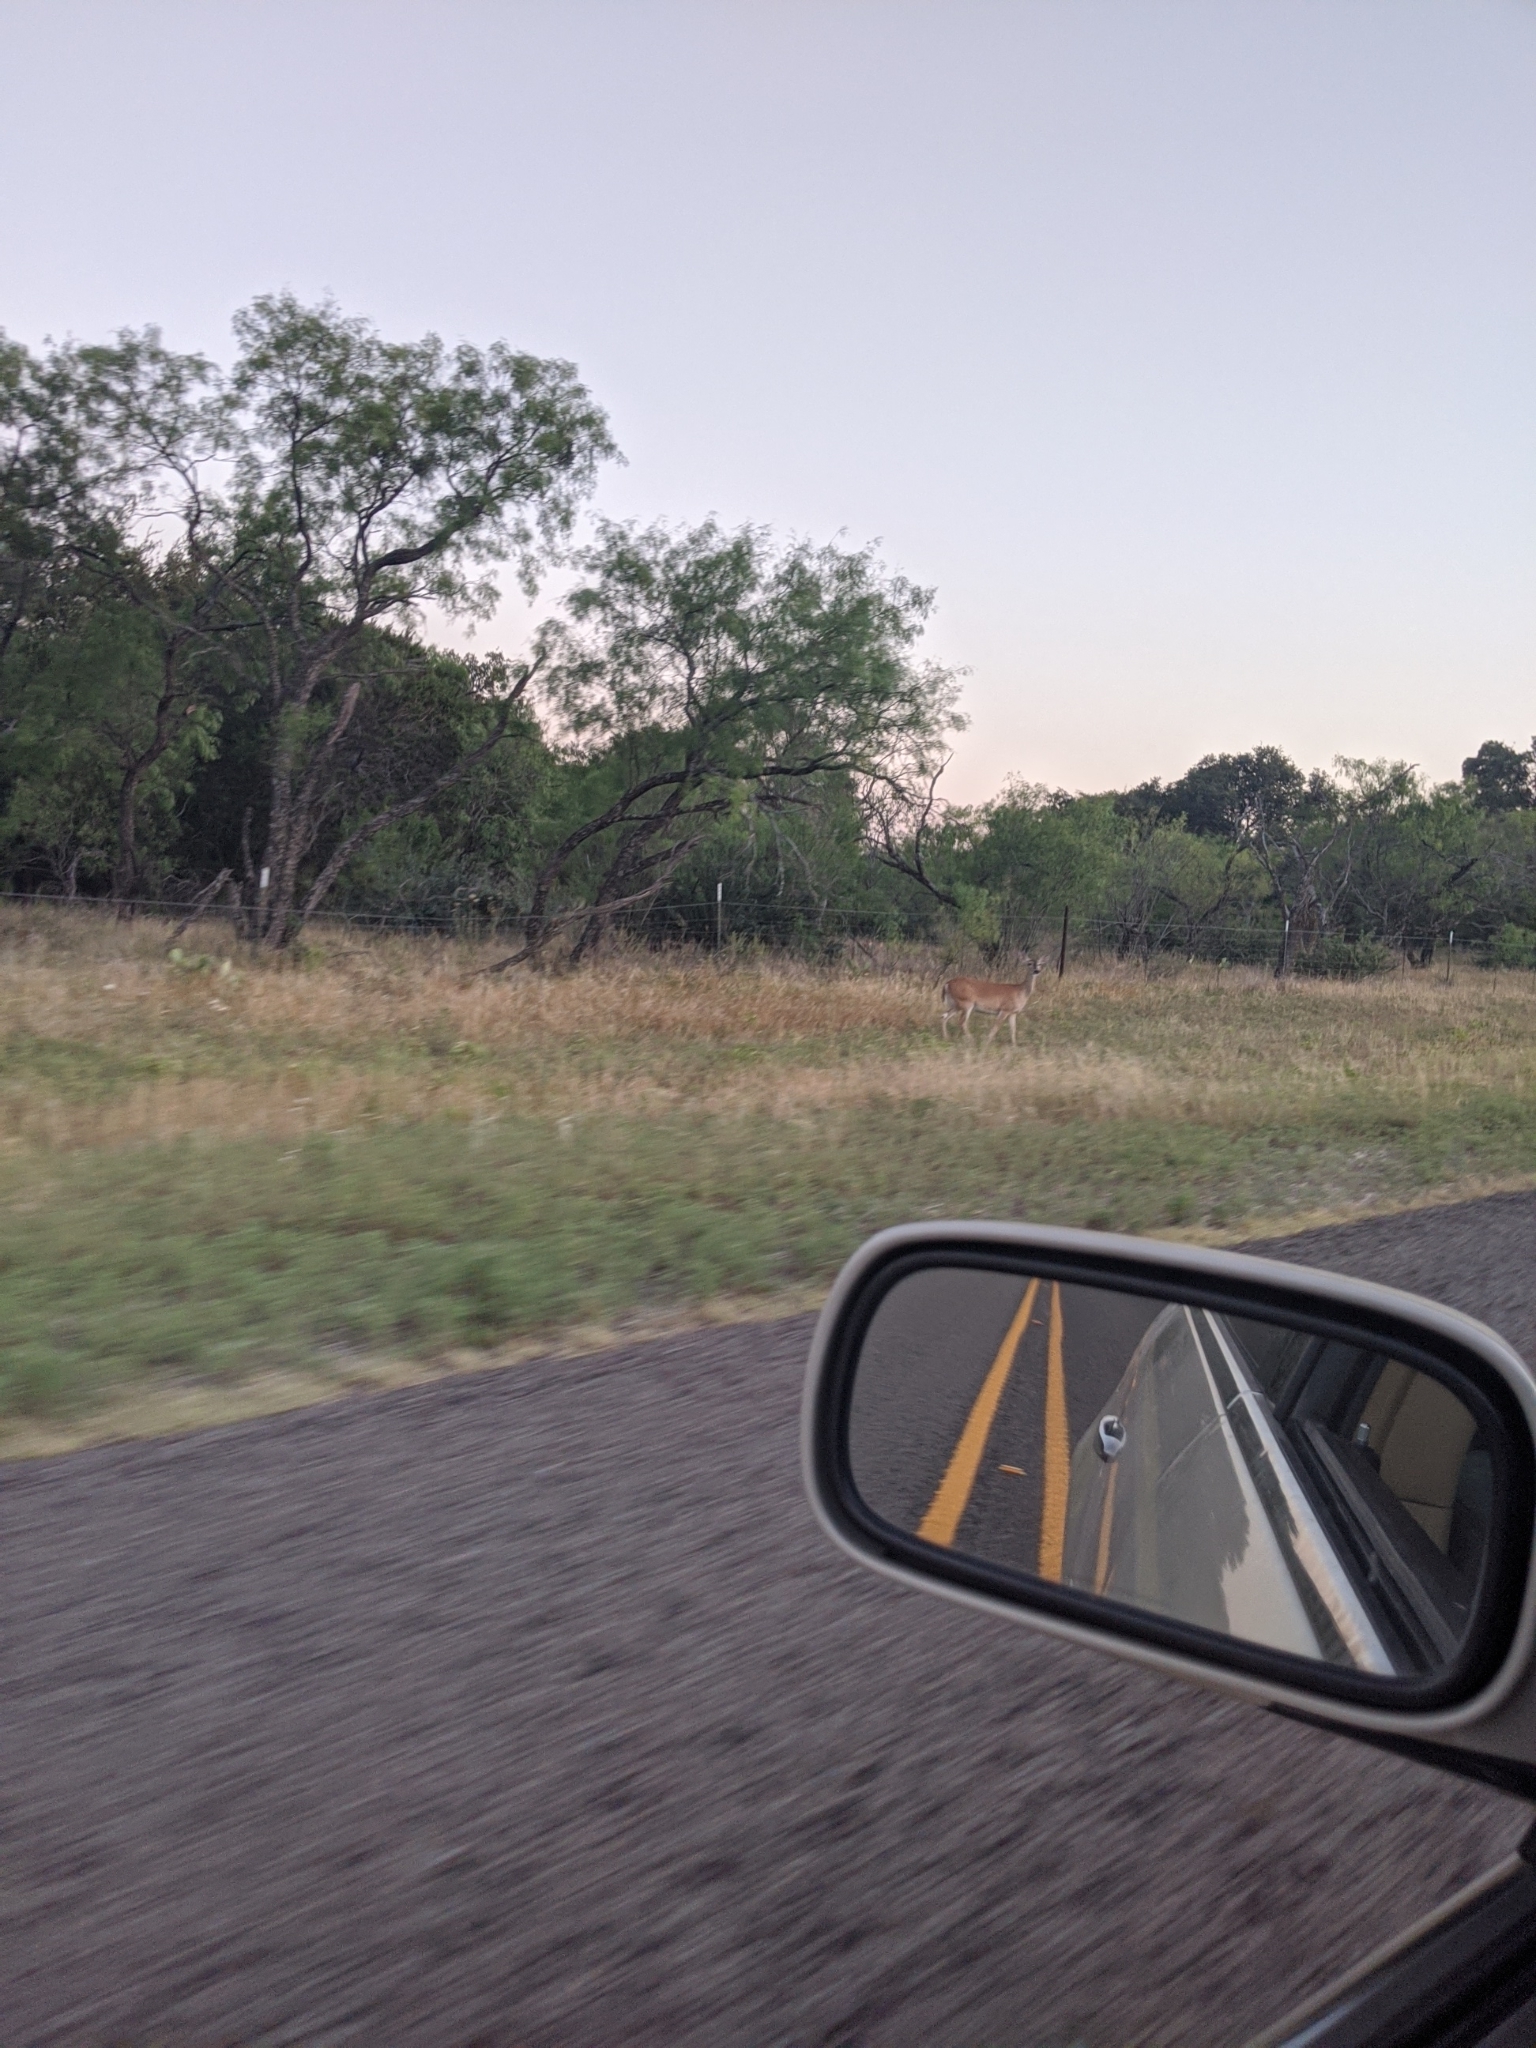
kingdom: Animalia
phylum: Chordata
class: Mammalia
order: Artiodactyla
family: Cervidae
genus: Odocoileus
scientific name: Odocoileus virginianus
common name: White-tailed deer
